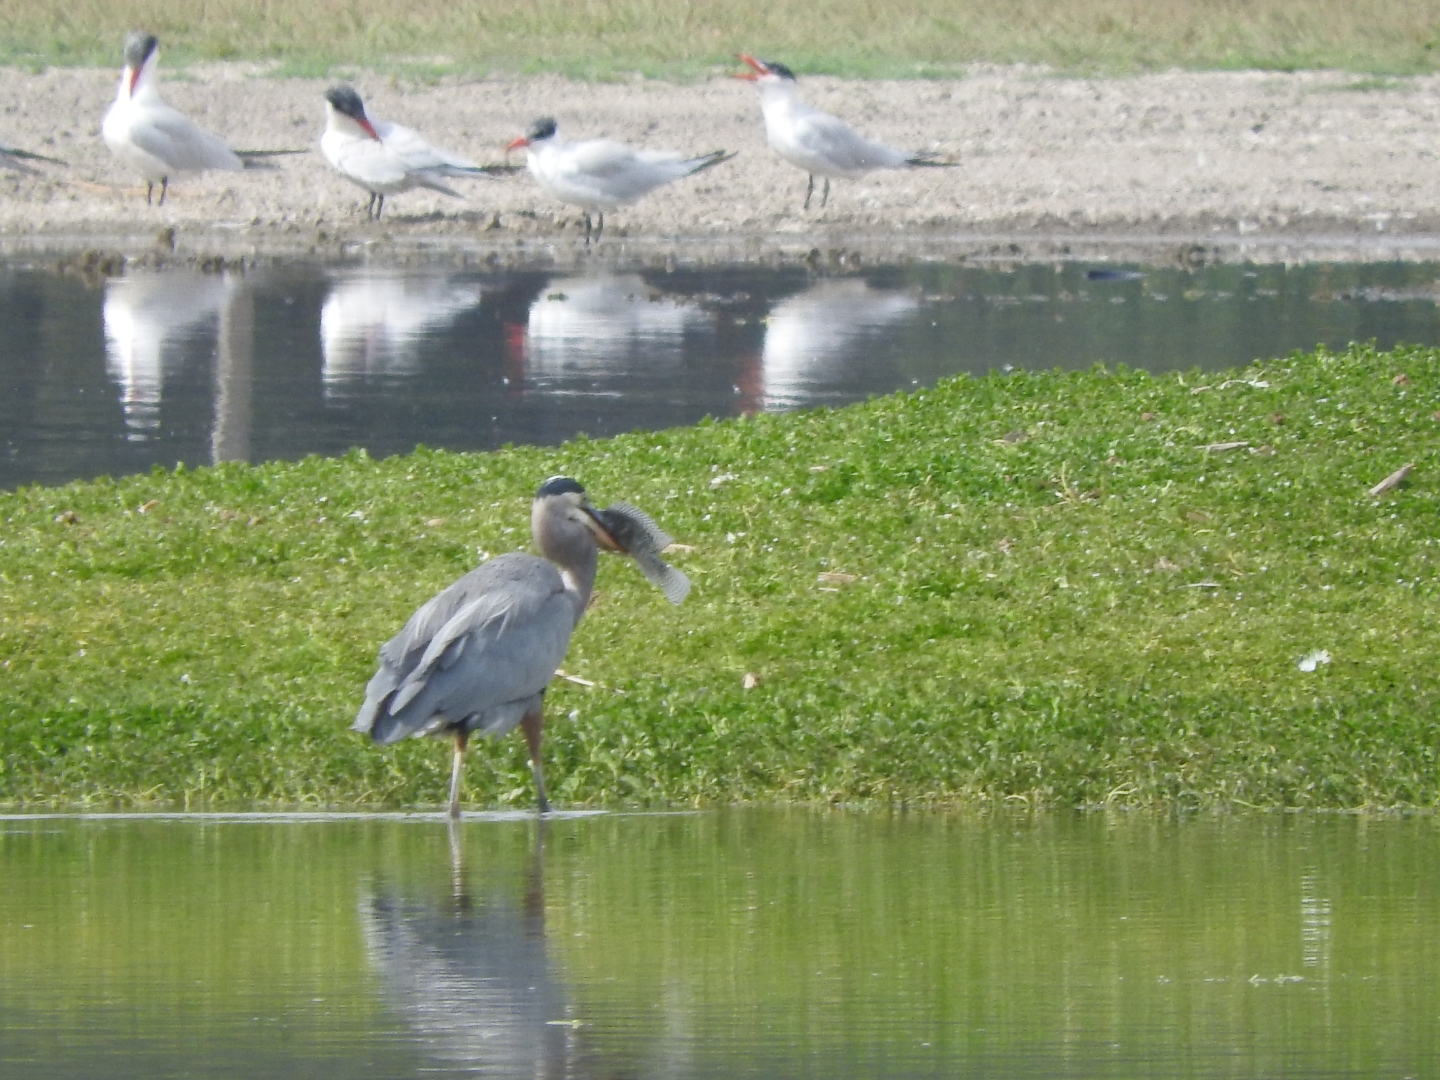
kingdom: Animalia
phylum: Chordata
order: Perciformes
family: Cichlidae
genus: Oreochromis
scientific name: Oreochromis niloticus
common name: Nile tilapia
